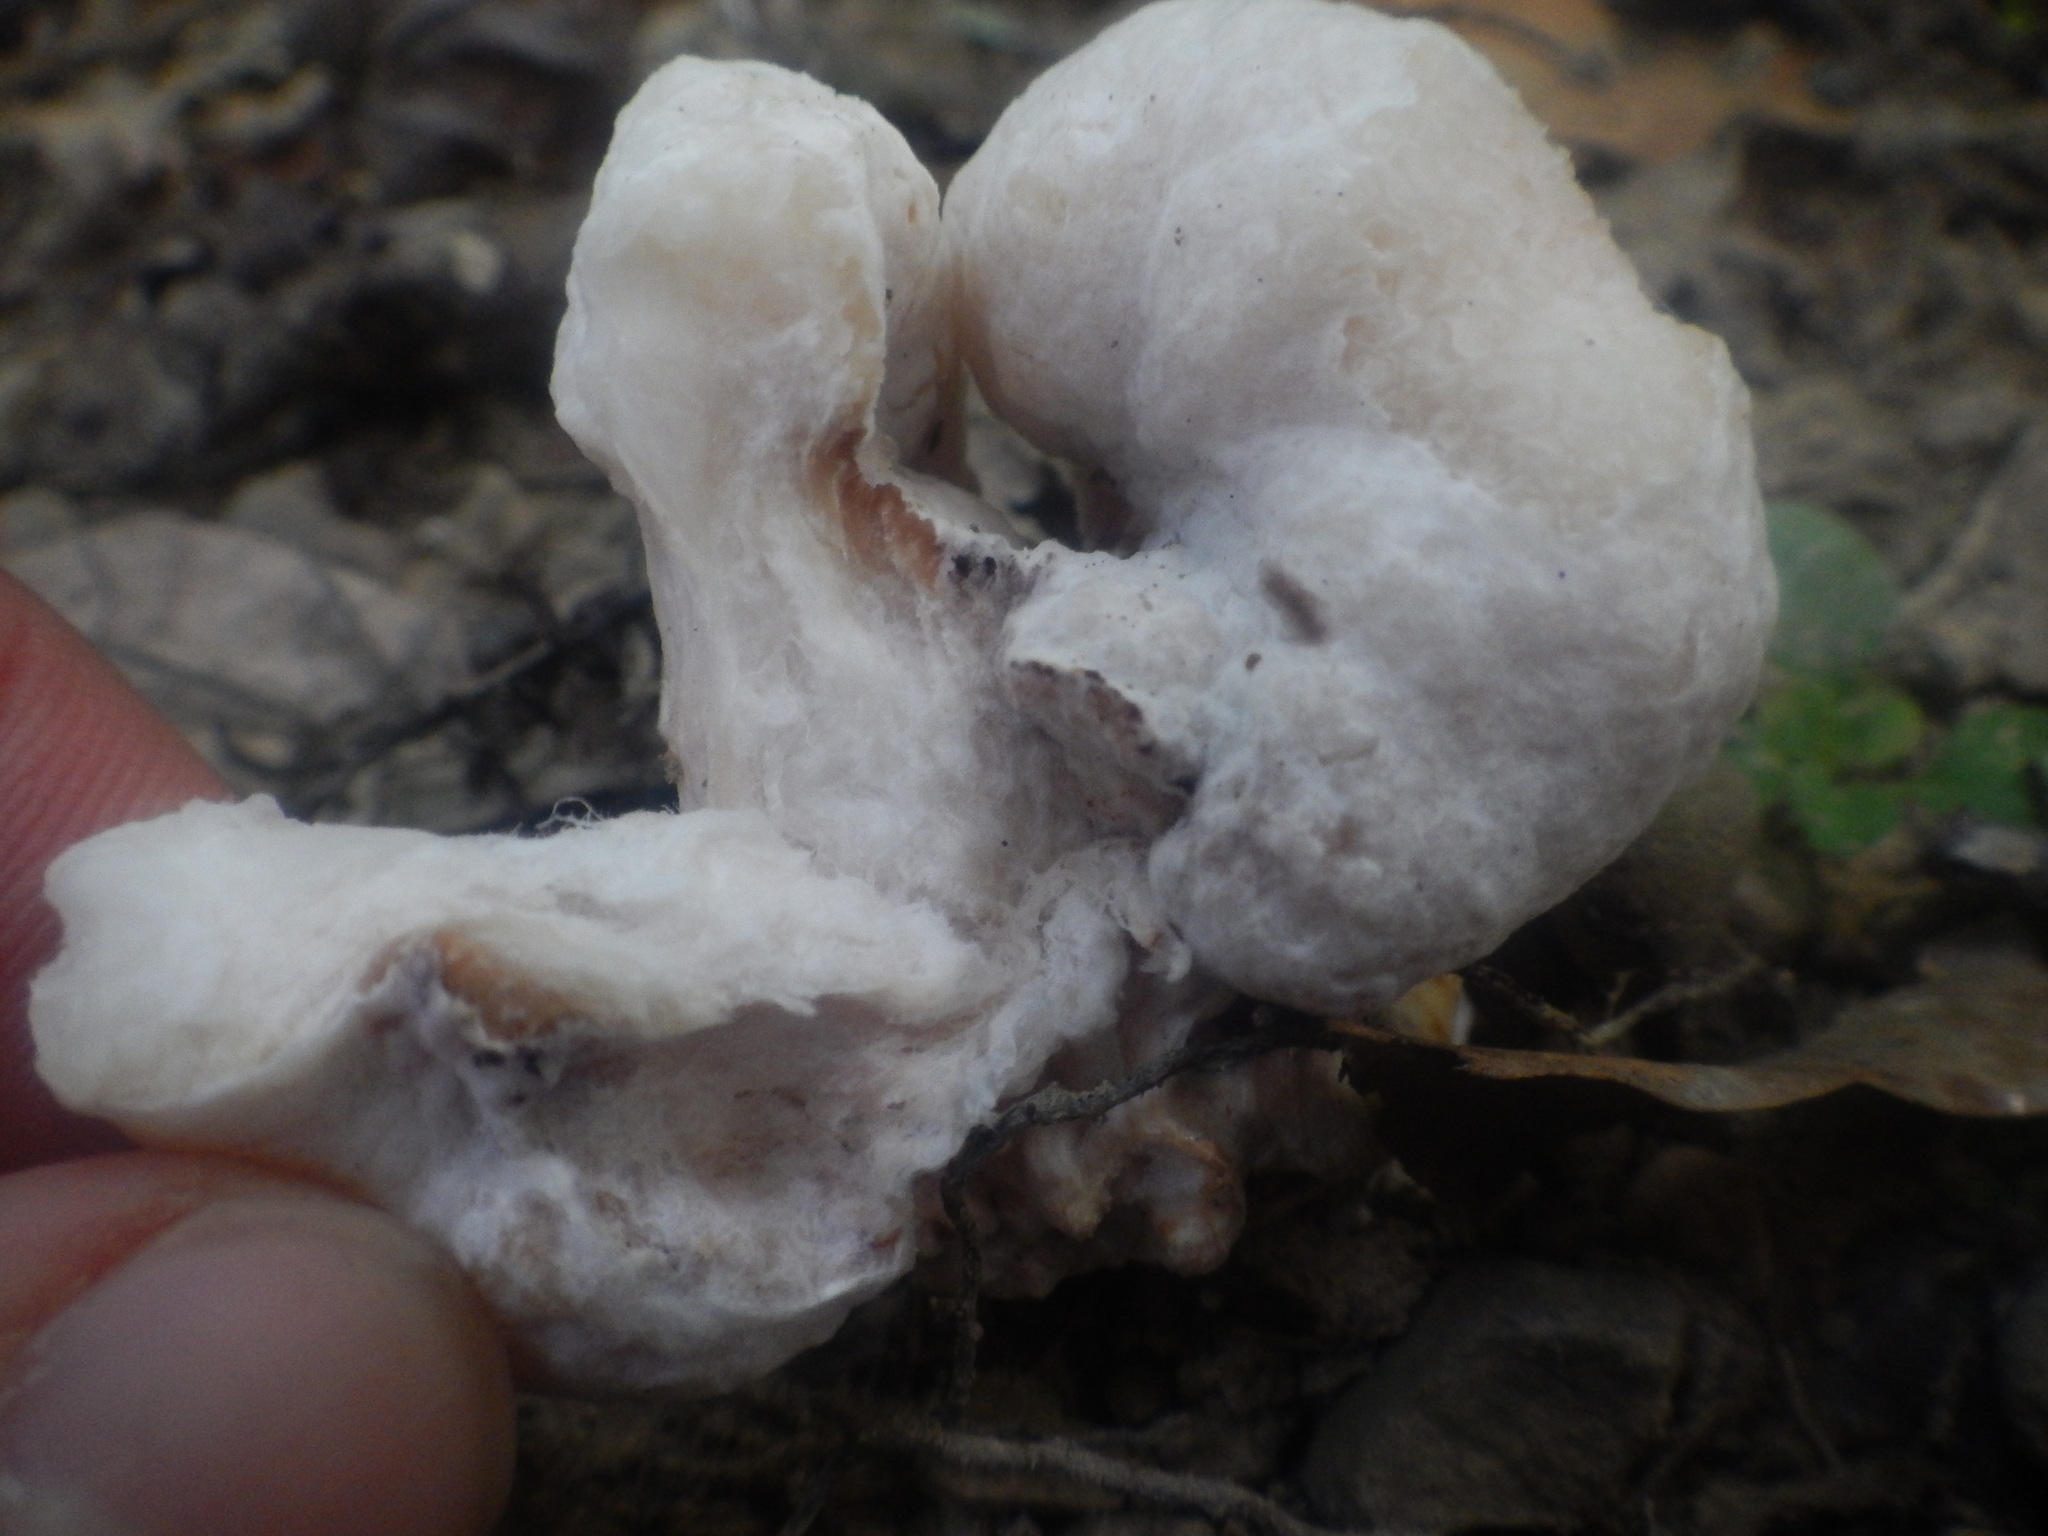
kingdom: Fungi
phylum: Basidiomycota
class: Agaricomycetes
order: Agaricales
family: Entolomataceae
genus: Entoloma
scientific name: Entoloma abortivum
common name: Aborted entoloma
